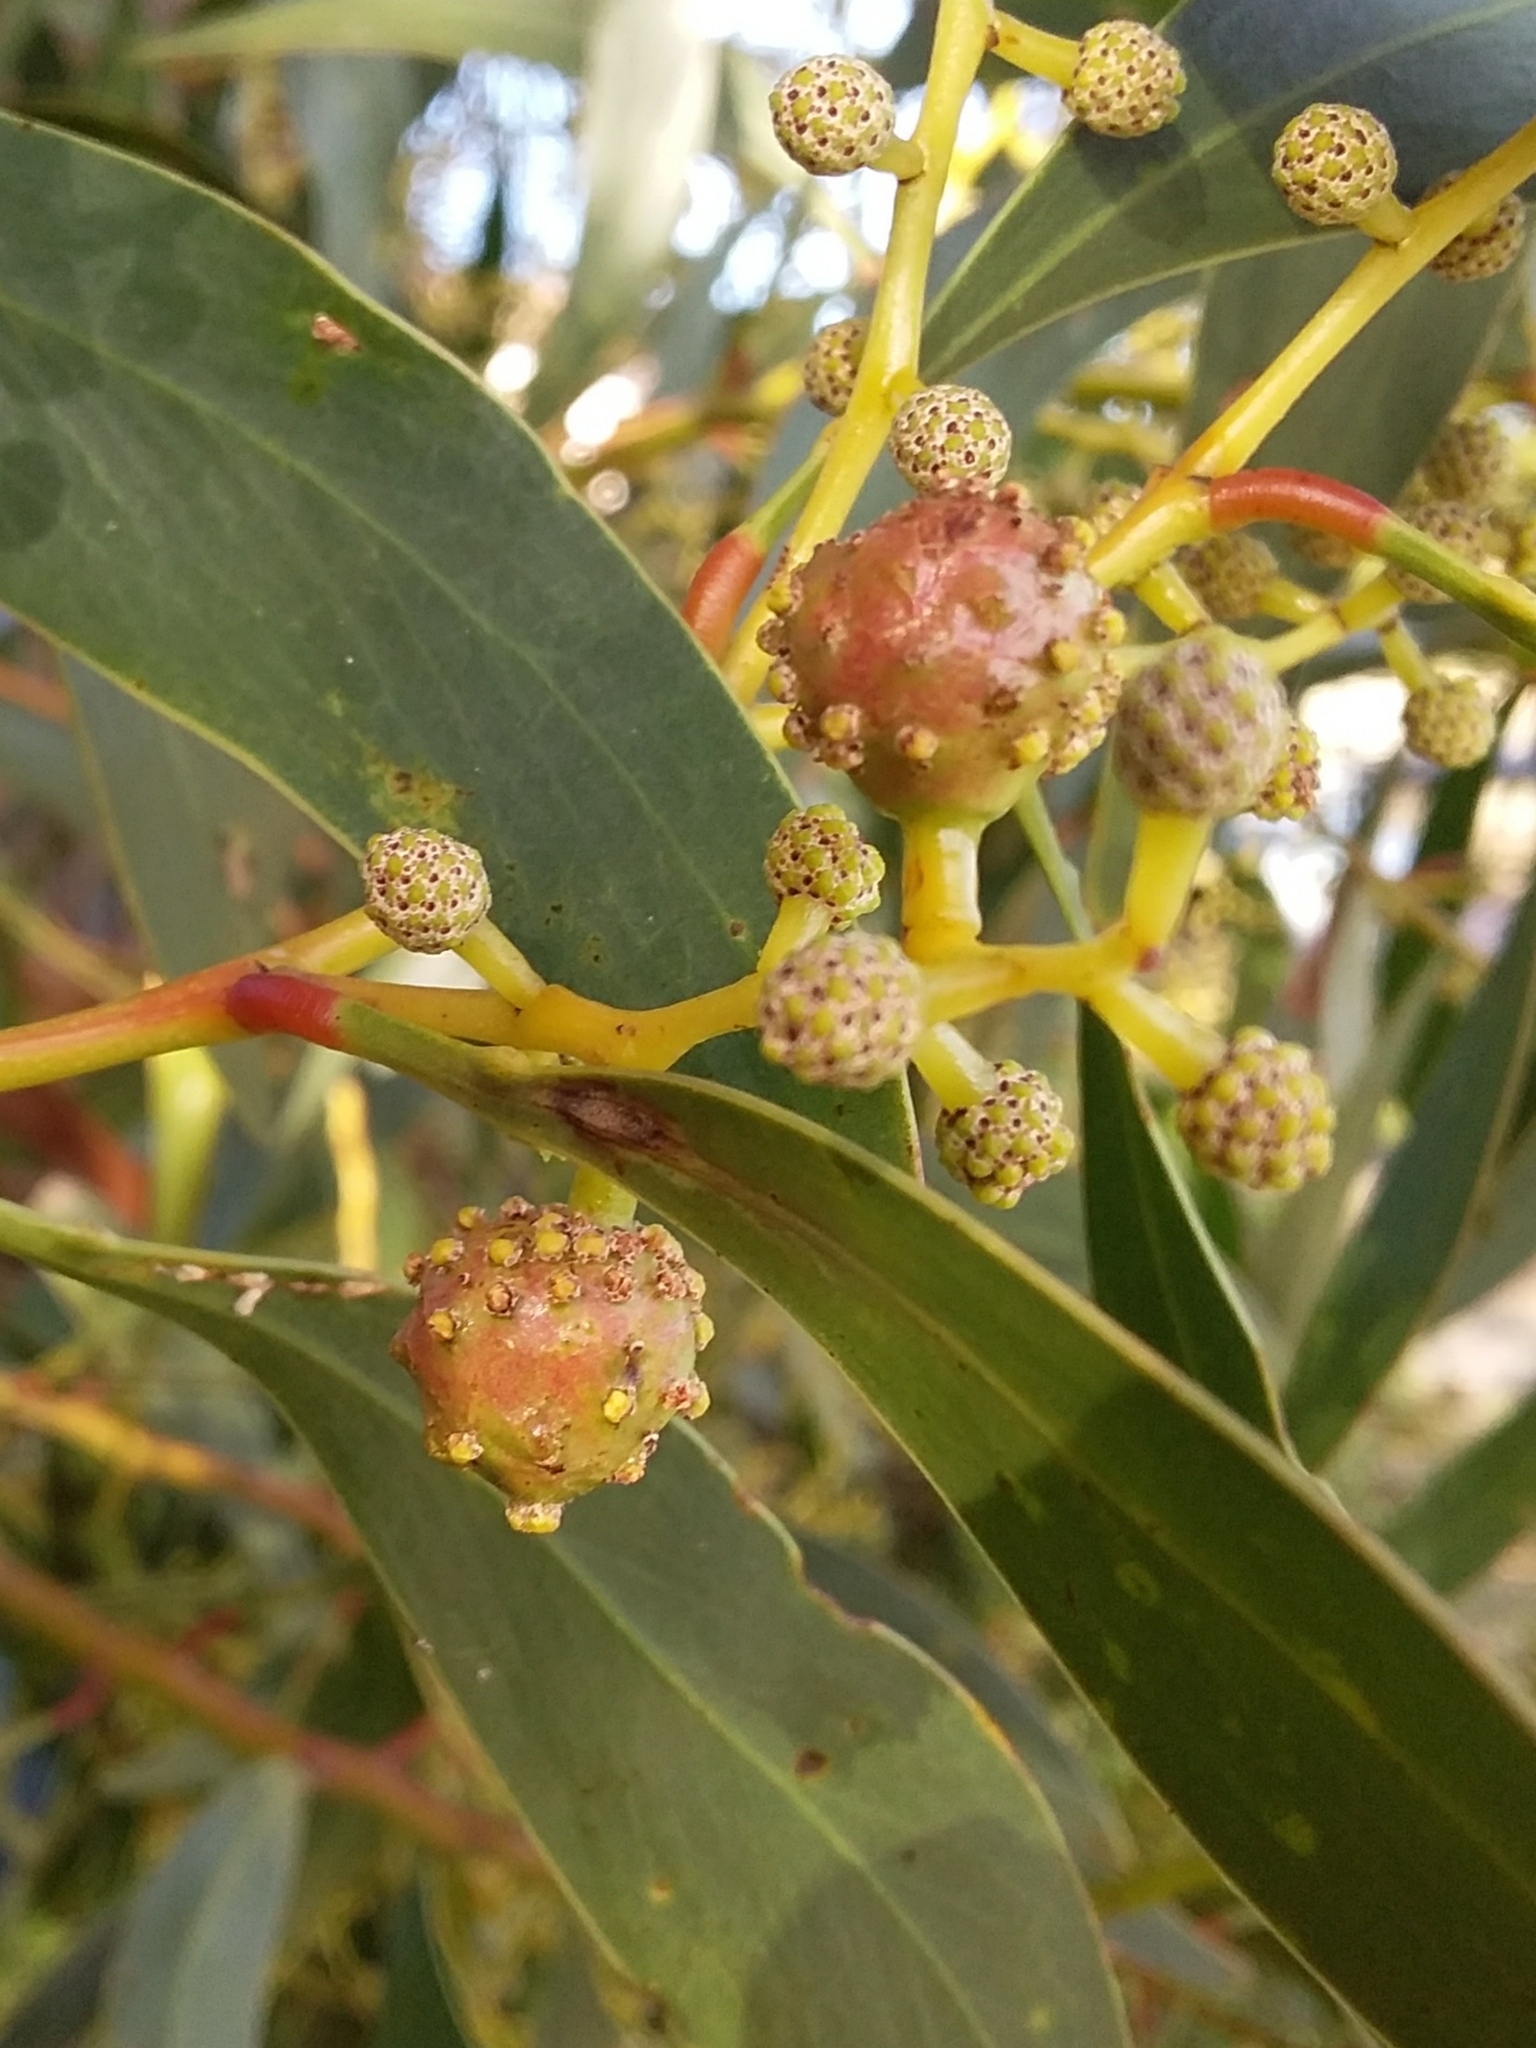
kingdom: Animalia
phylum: Arthropoda
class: Insecta
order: Hymenoptera
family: Pteromalidae
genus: Trichilogaster
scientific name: Trichilogaster signiventris
